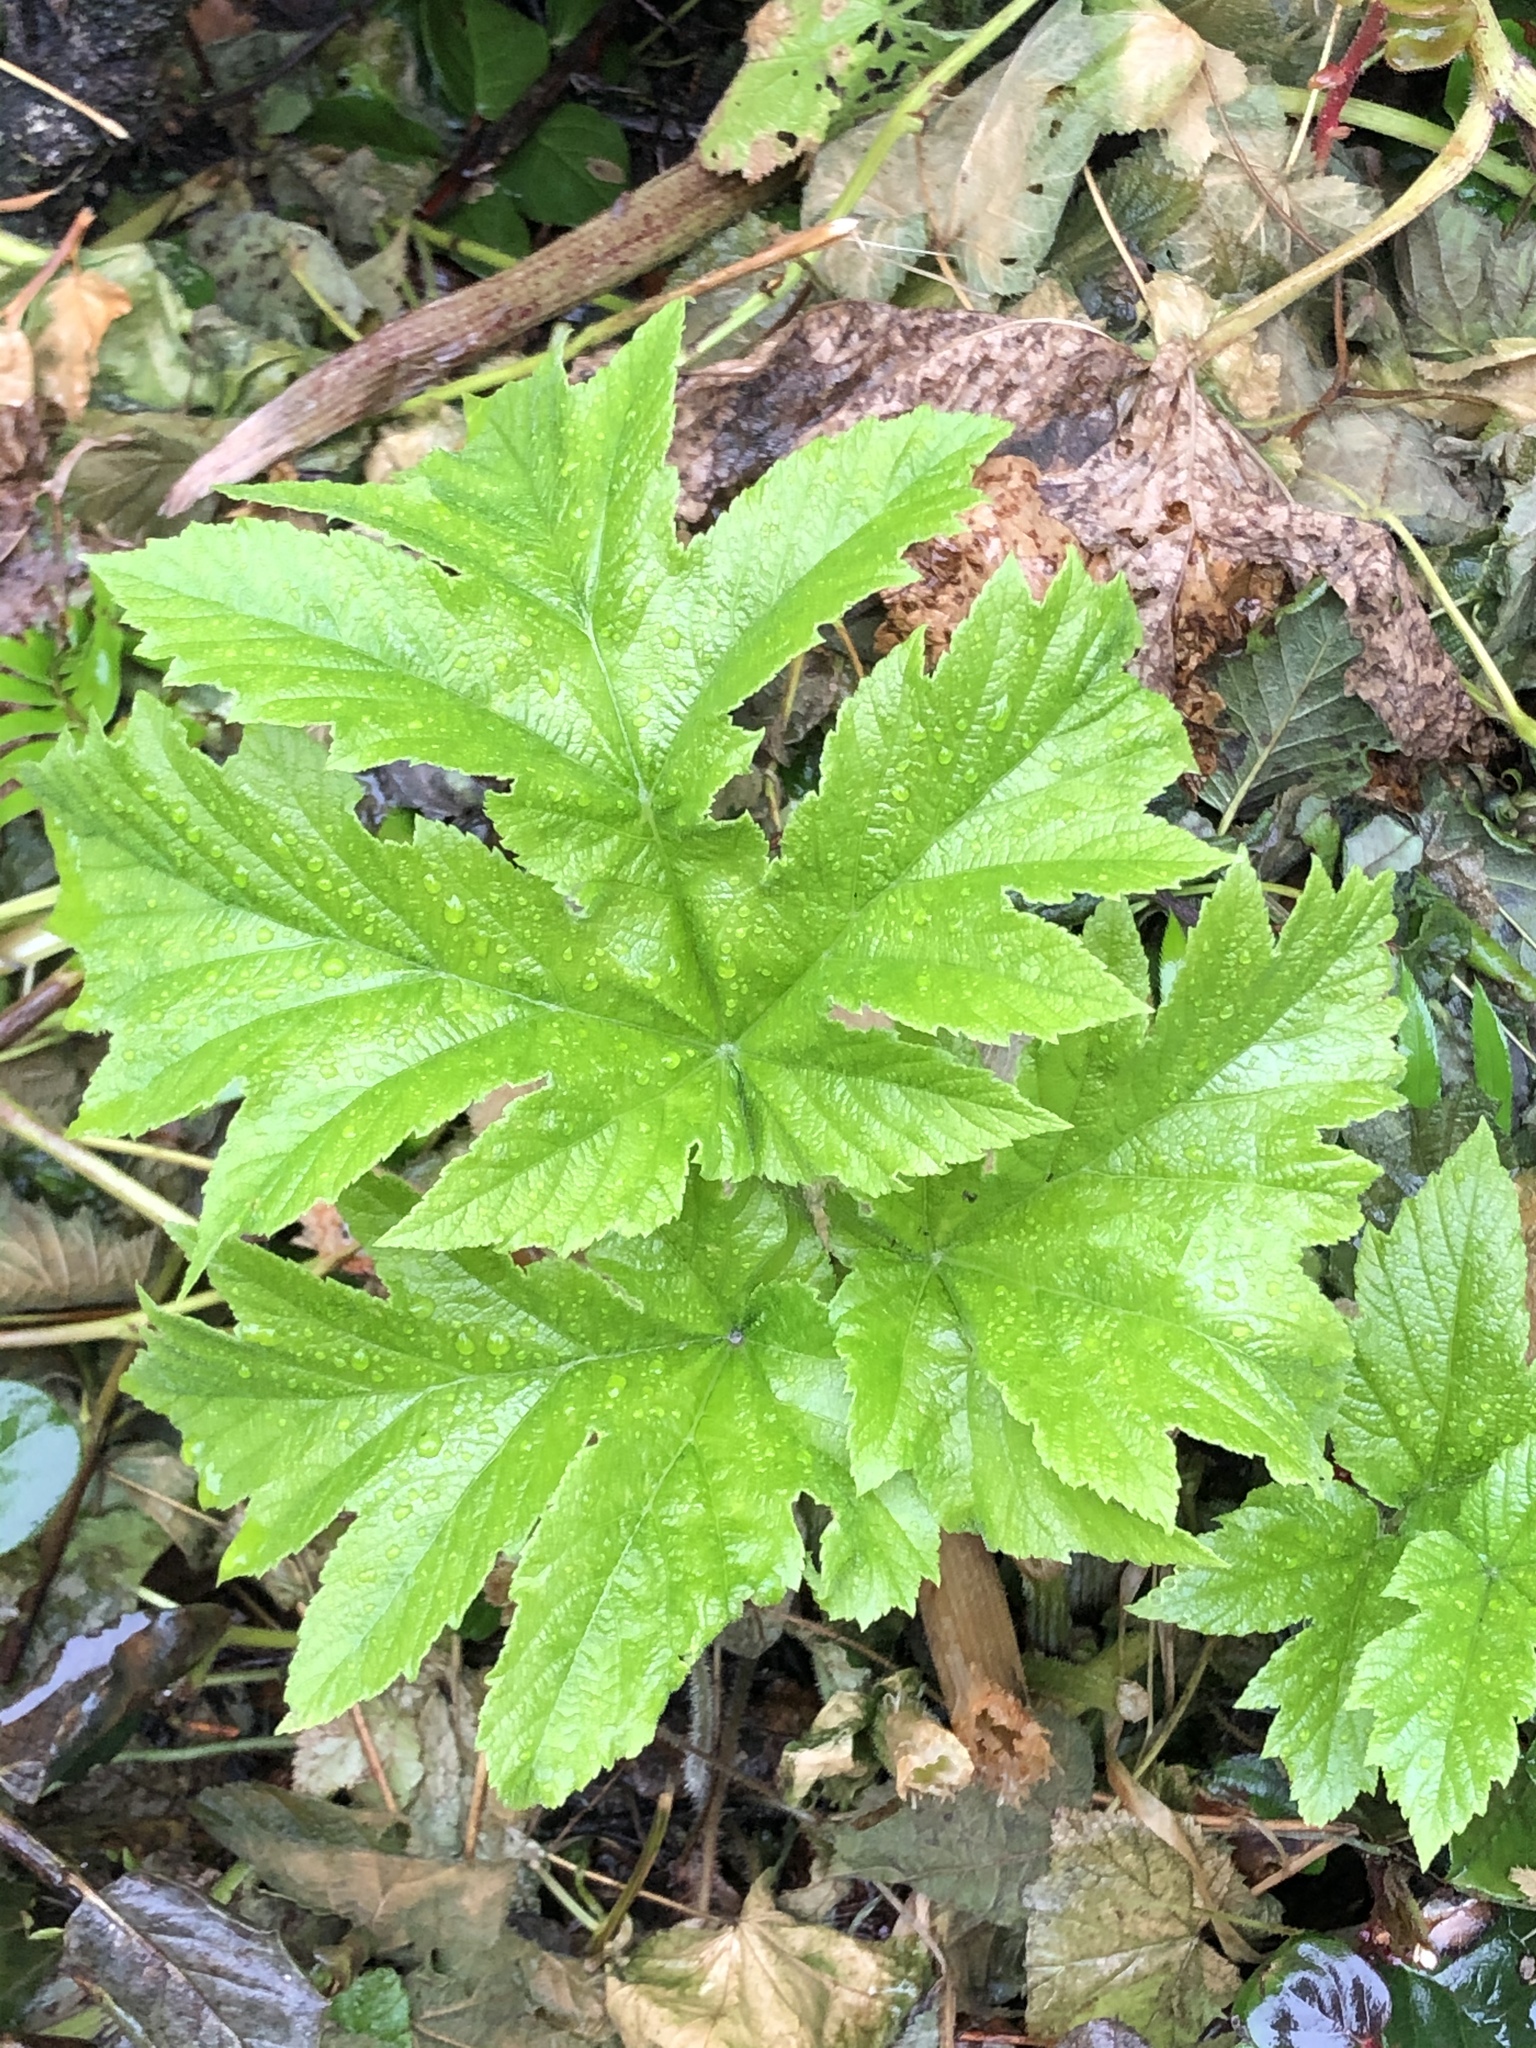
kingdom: Plantae
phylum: Tracheophyta
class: Magnoliopsida
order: Apiales
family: Apiaceae
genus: Heracleum
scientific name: Heracleum maximum
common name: American cow parsnip
